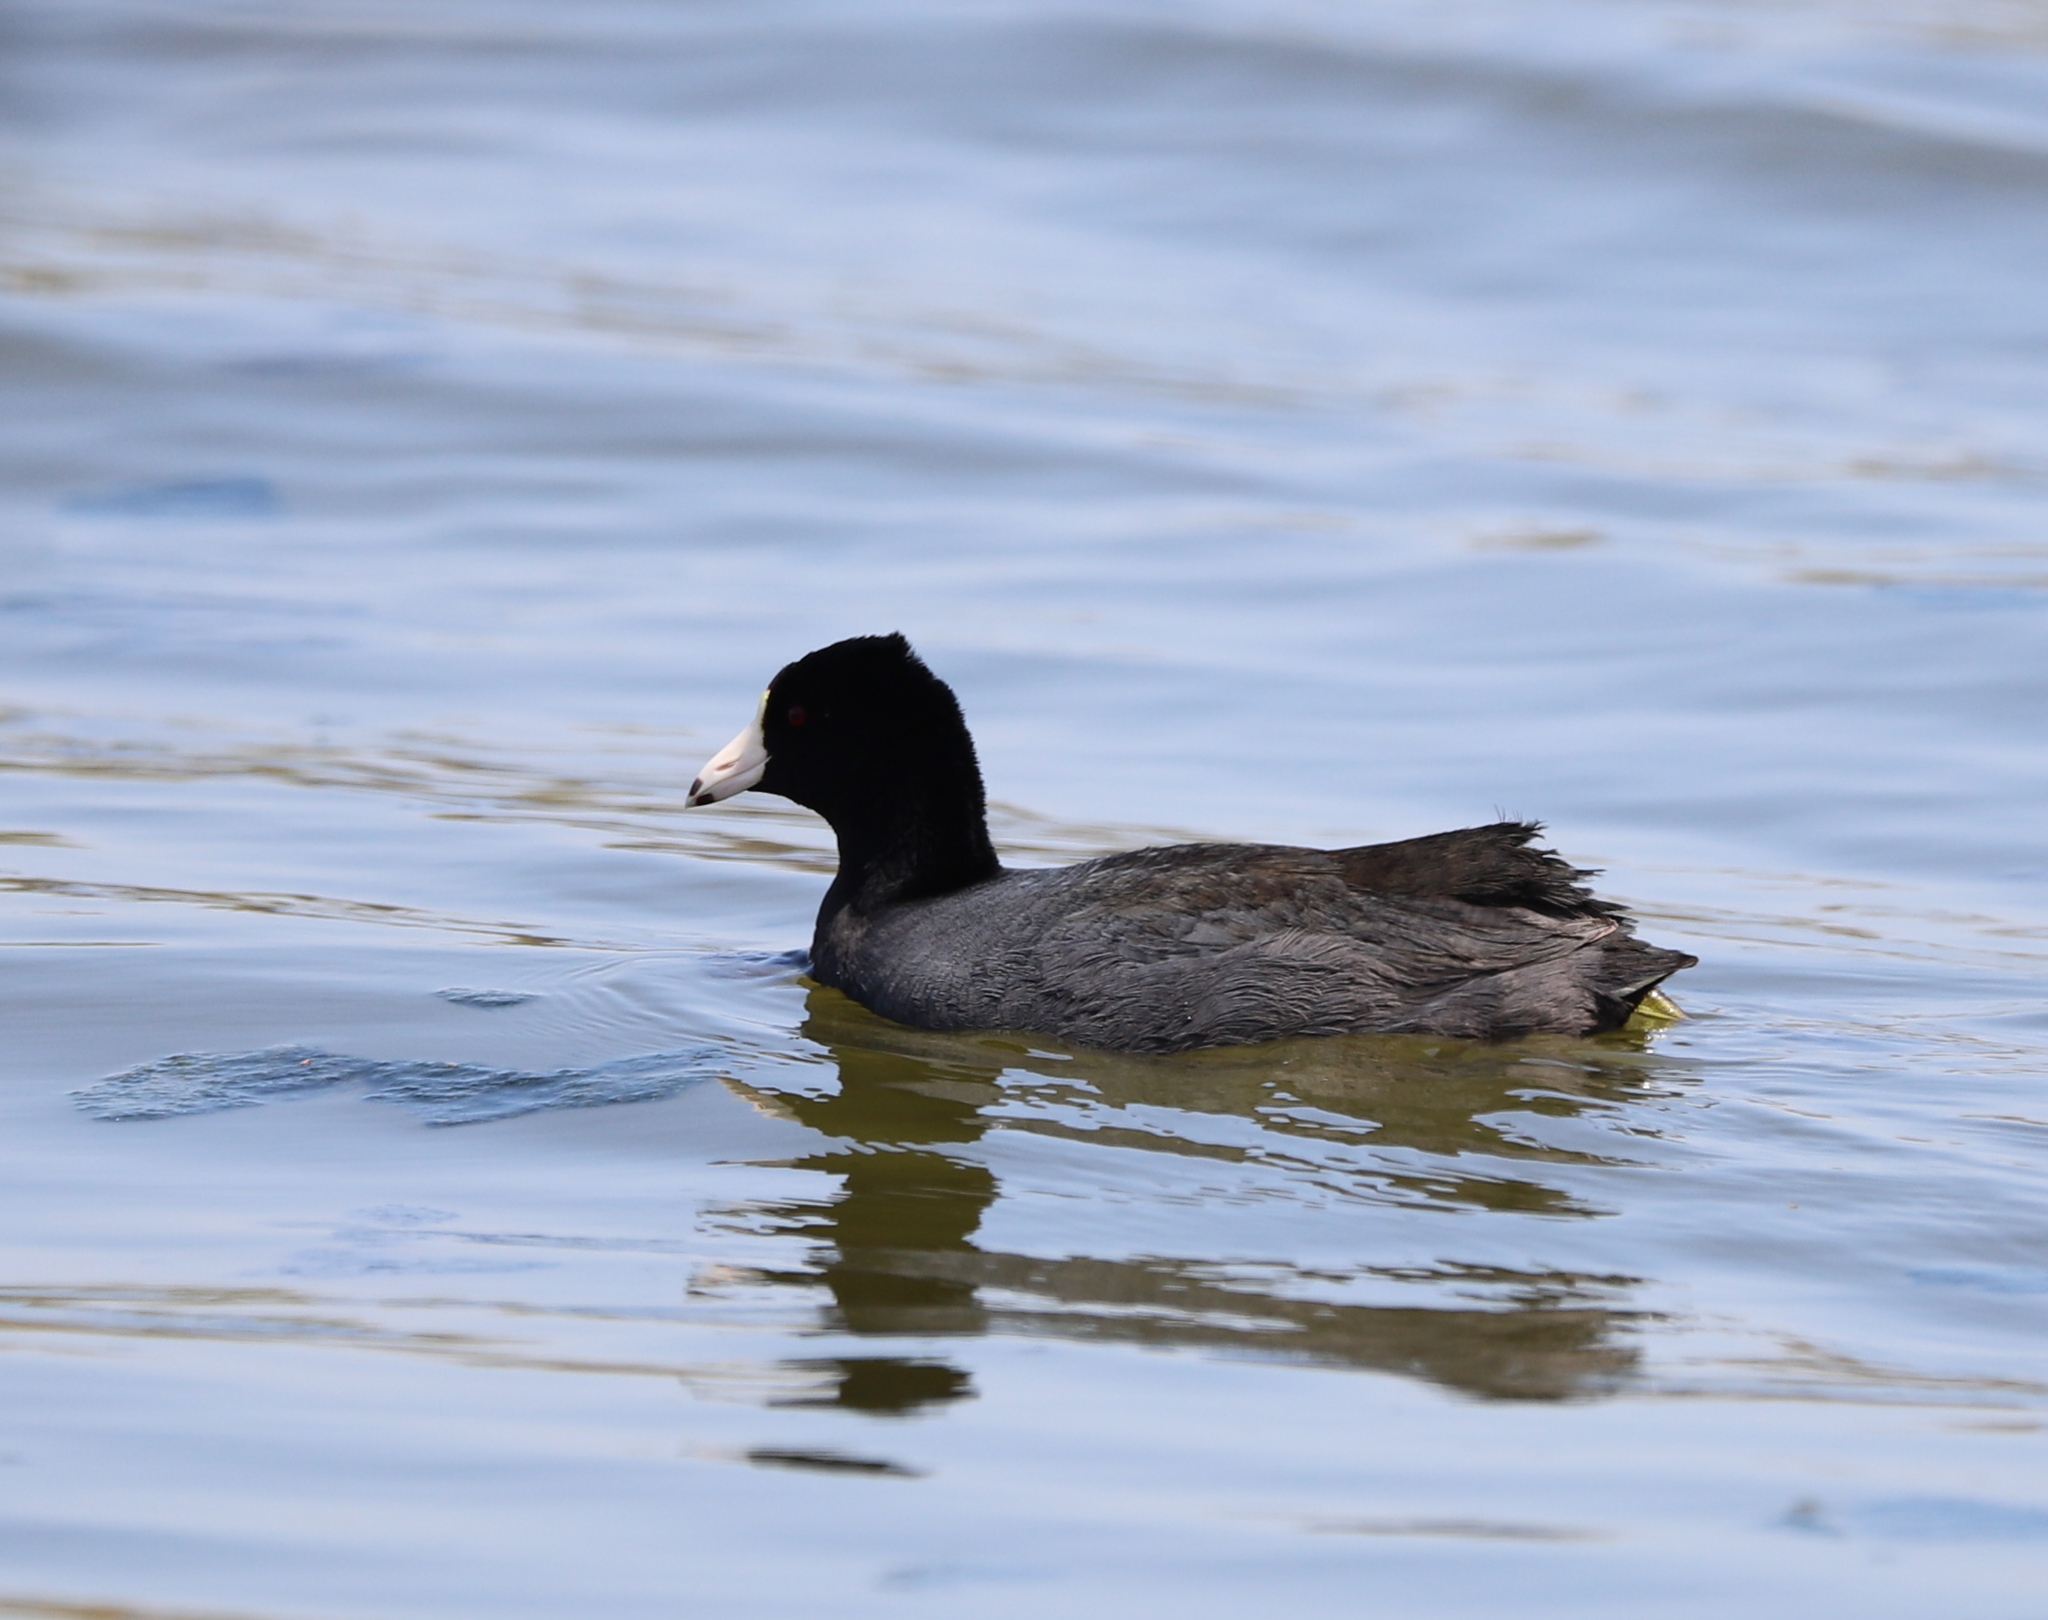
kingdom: Animalia
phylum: Chordata
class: Aves
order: Gruiformes
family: Rallidae
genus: Fulica
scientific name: Fulica americana
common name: American coot
